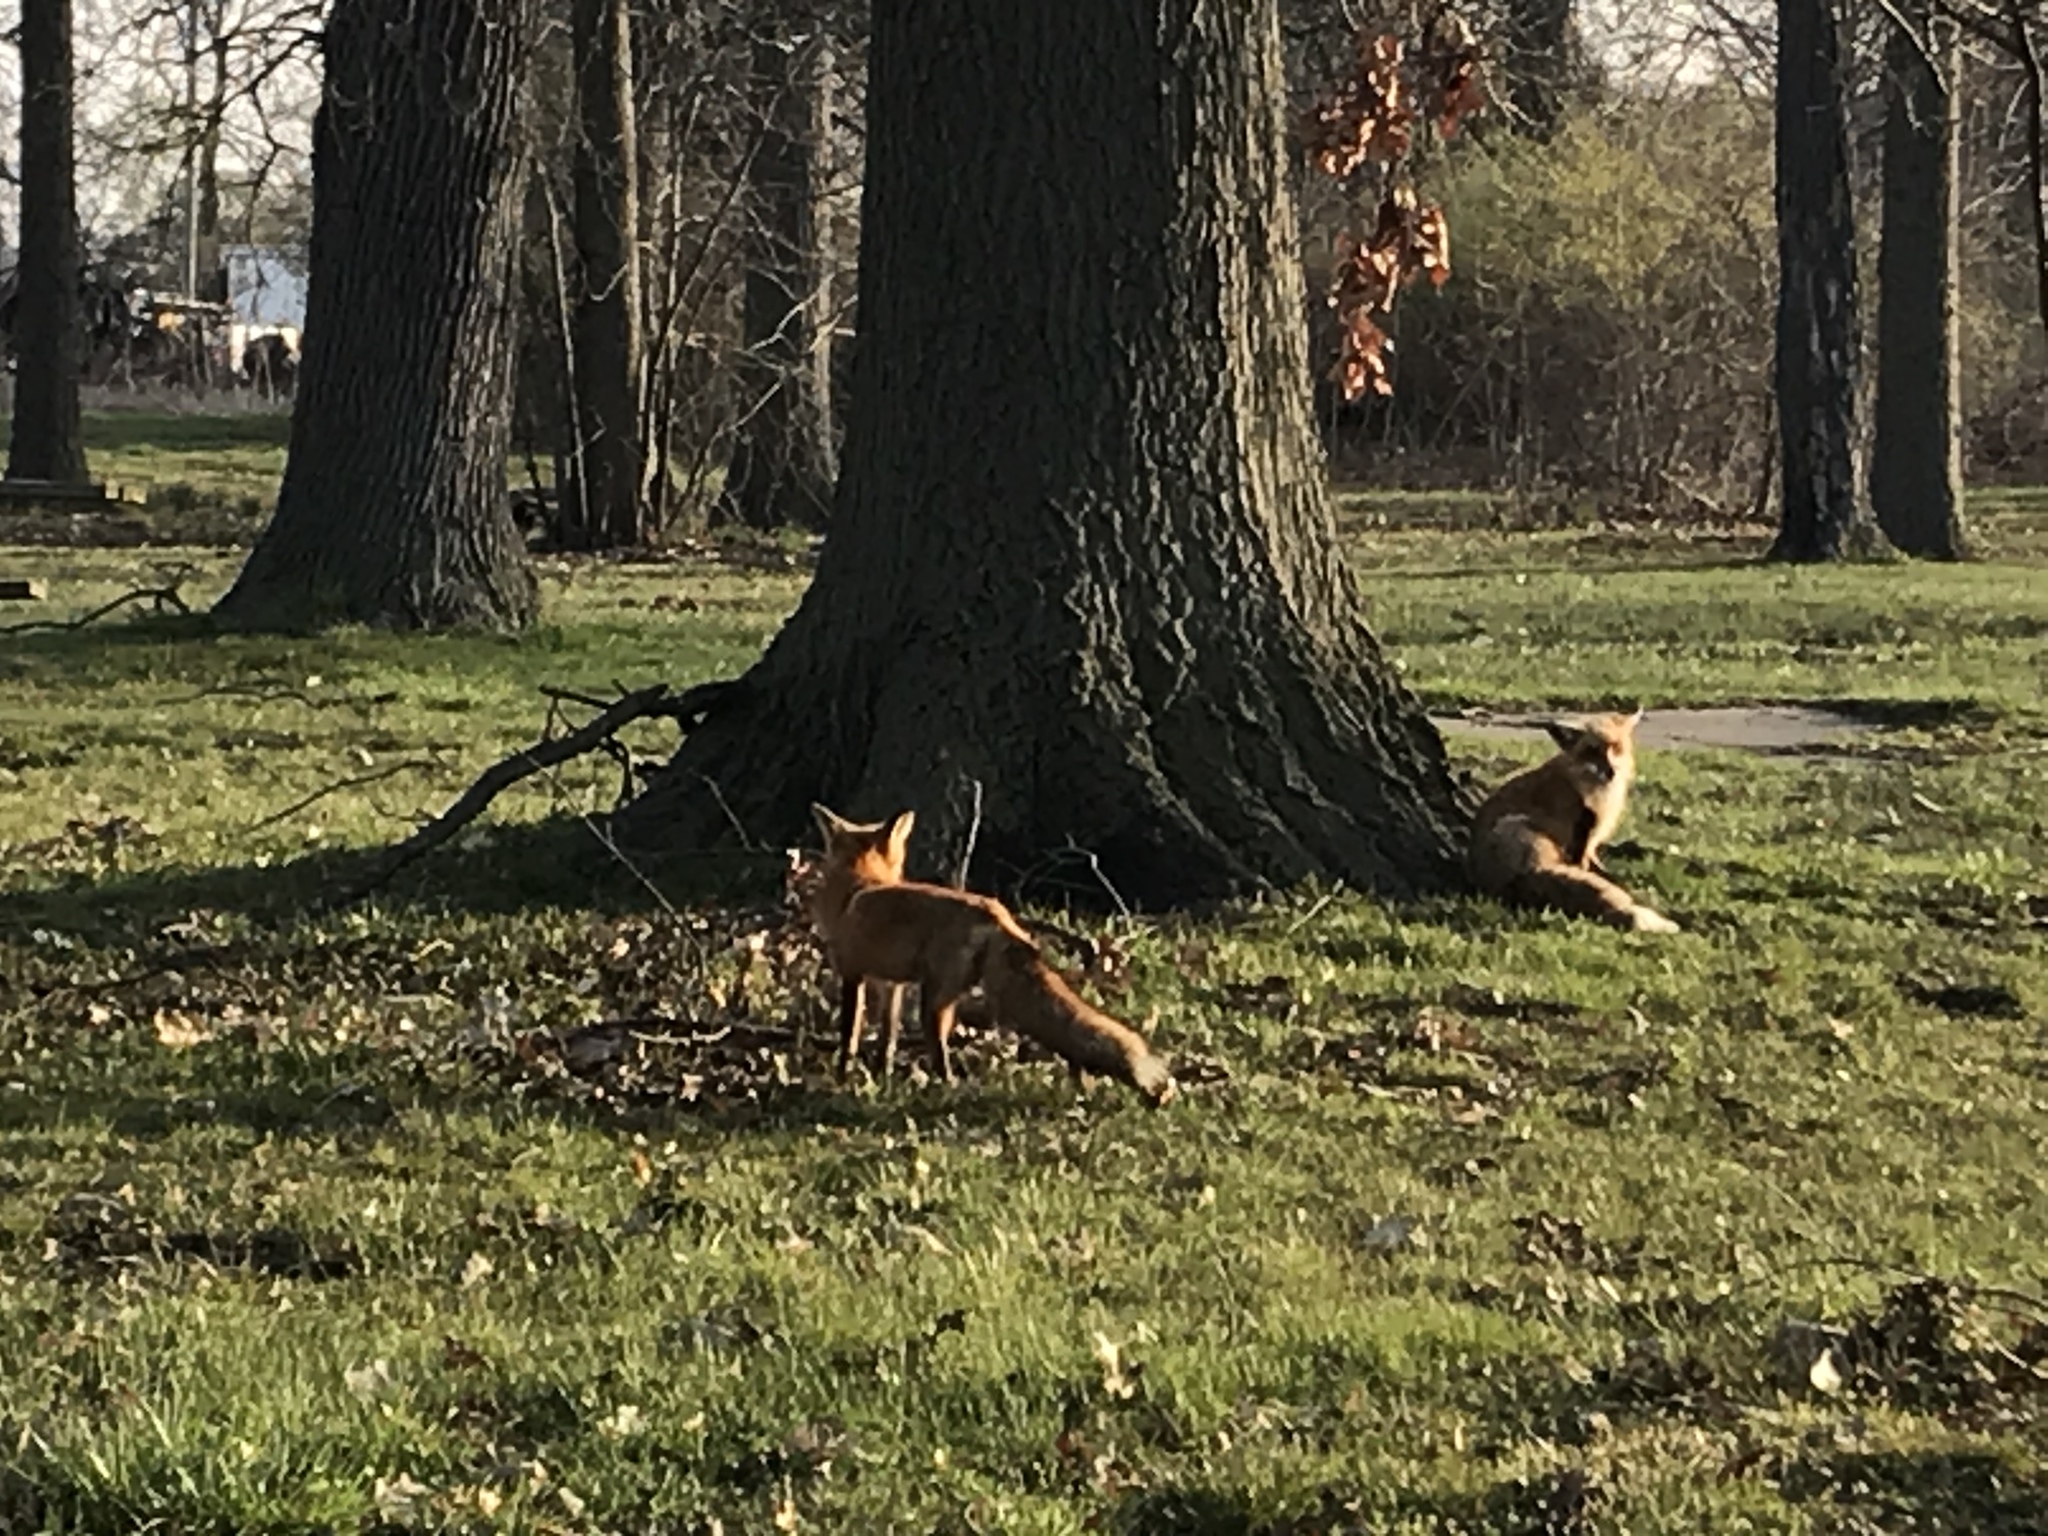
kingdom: Animalia
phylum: Chordata
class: Mammalia
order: Carnivora
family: Canidae
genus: Vulpes
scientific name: Vulpes vulpes
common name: Red fox
